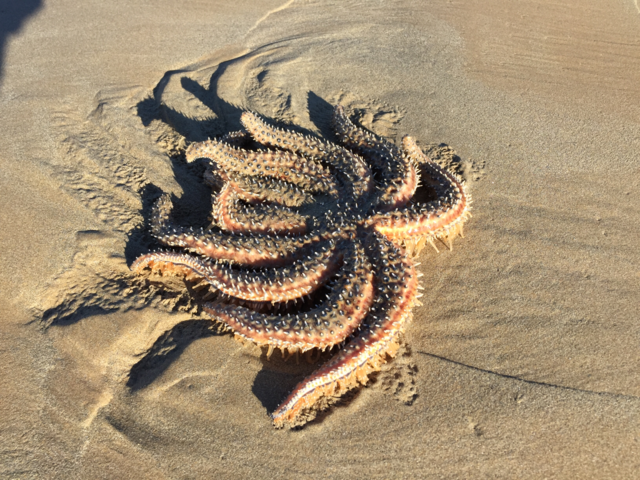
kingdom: Animalia
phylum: Echinodermata
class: Asteroidea
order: Forcipulatida
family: Asteriidae
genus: Coscinasterias
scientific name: Coscinasterias muricata
